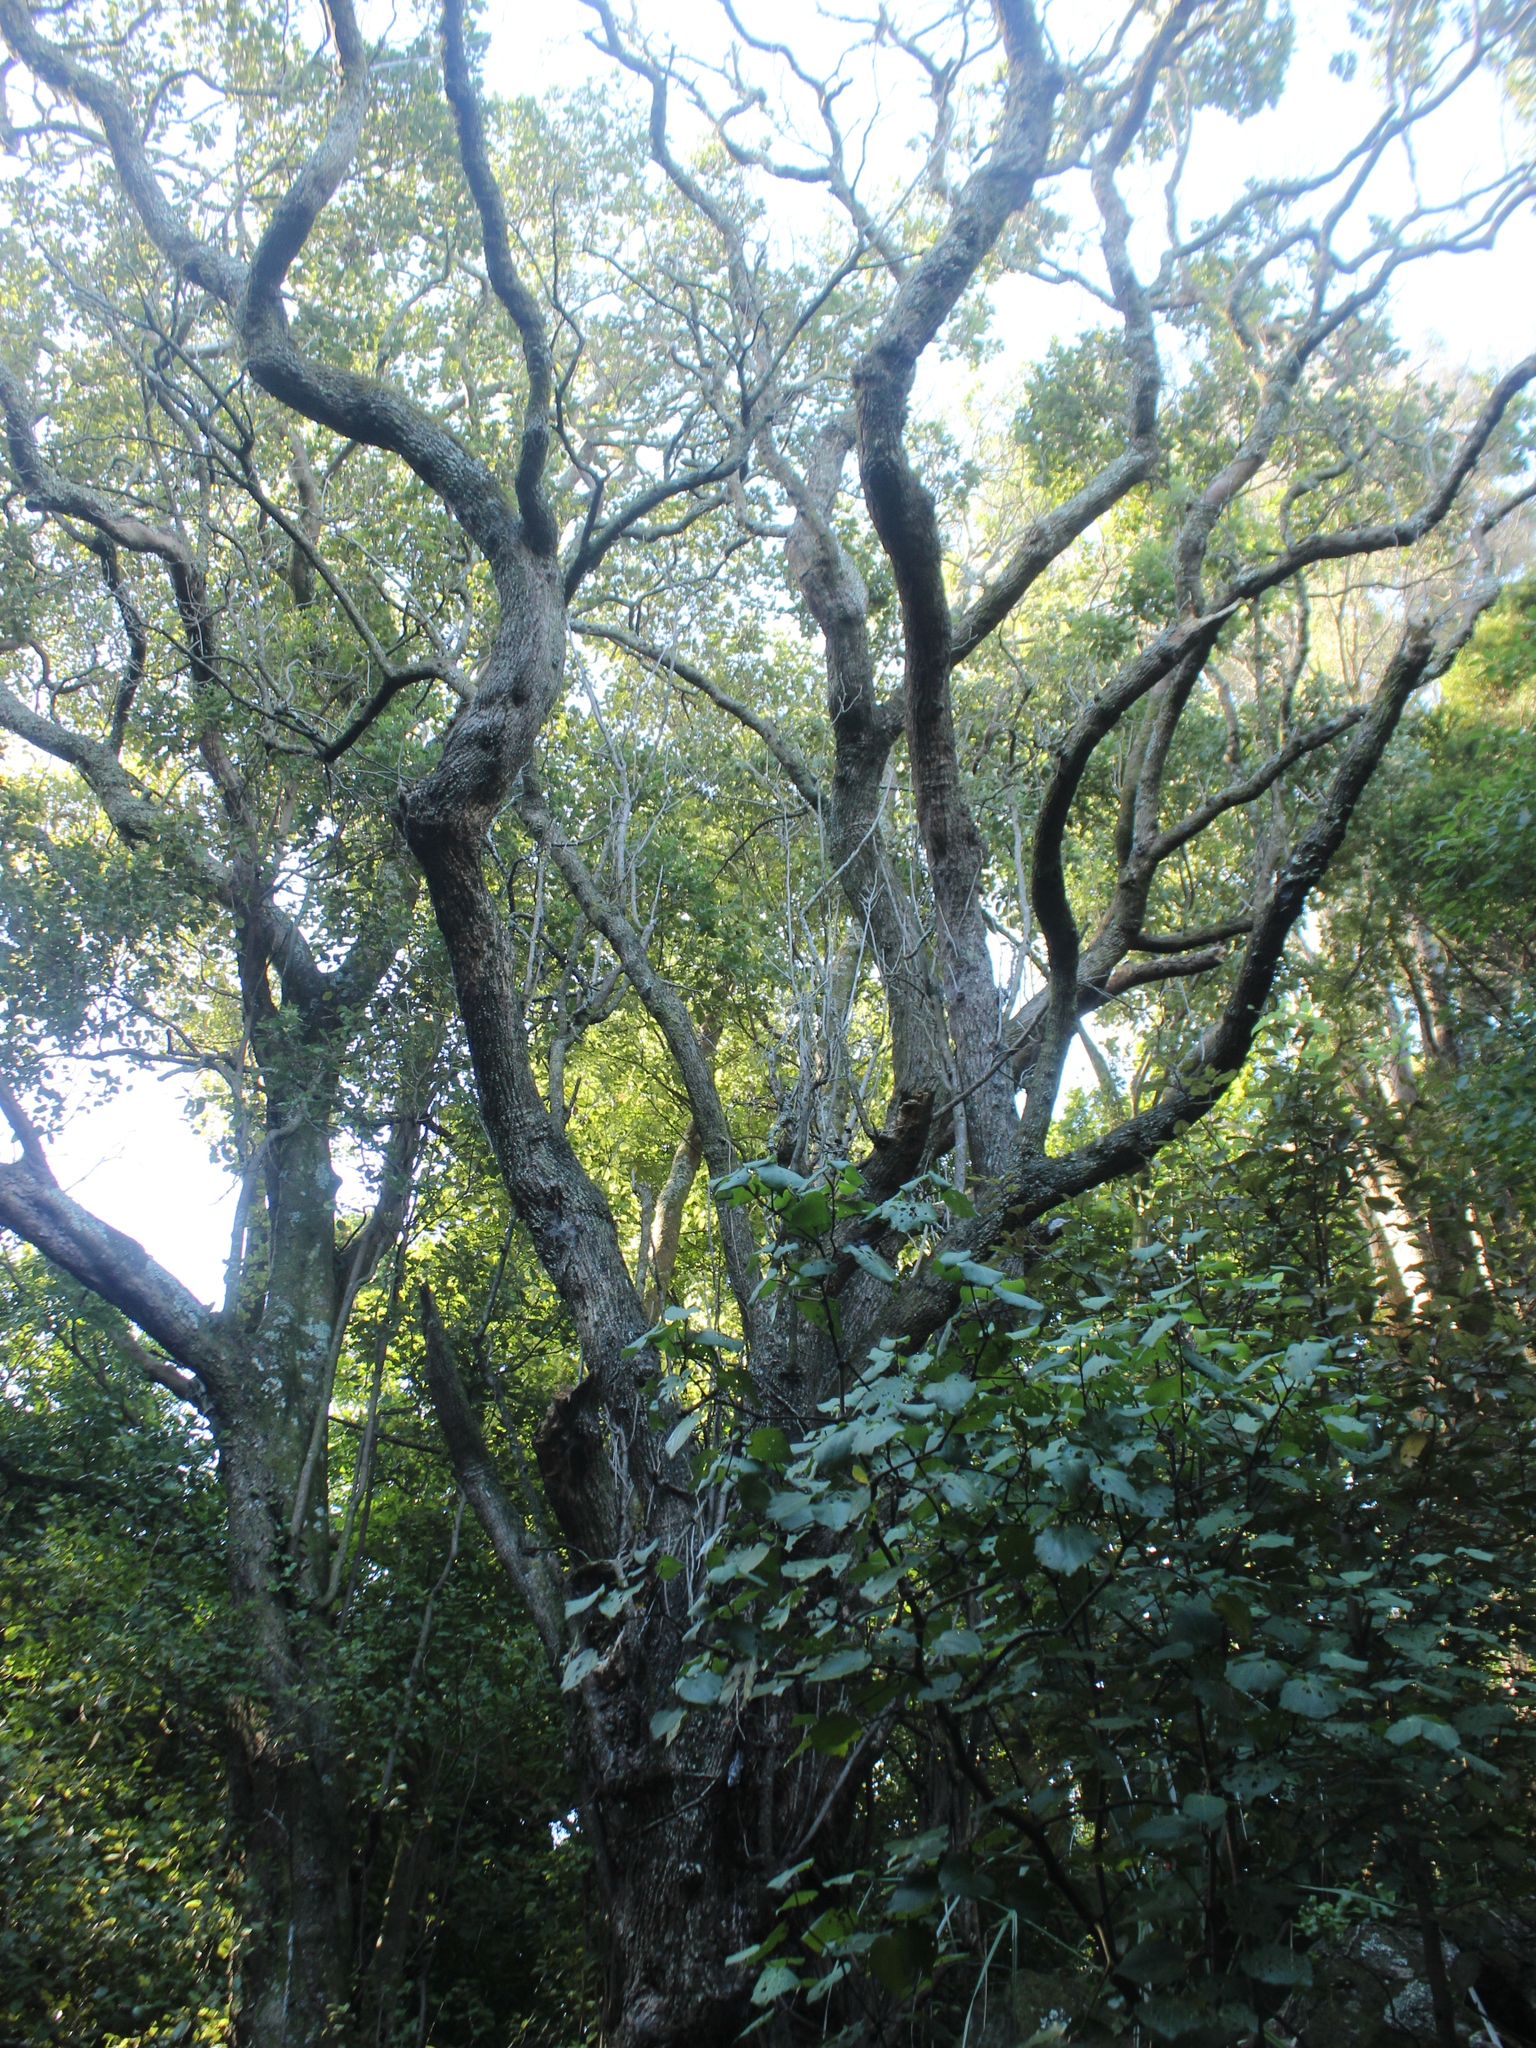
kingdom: Plantae
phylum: Tracheophyta
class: Magnoliopsida
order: Laurales
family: Lauraceae
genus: Beilschmiedia
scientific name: Beilschmiedia tarairi
